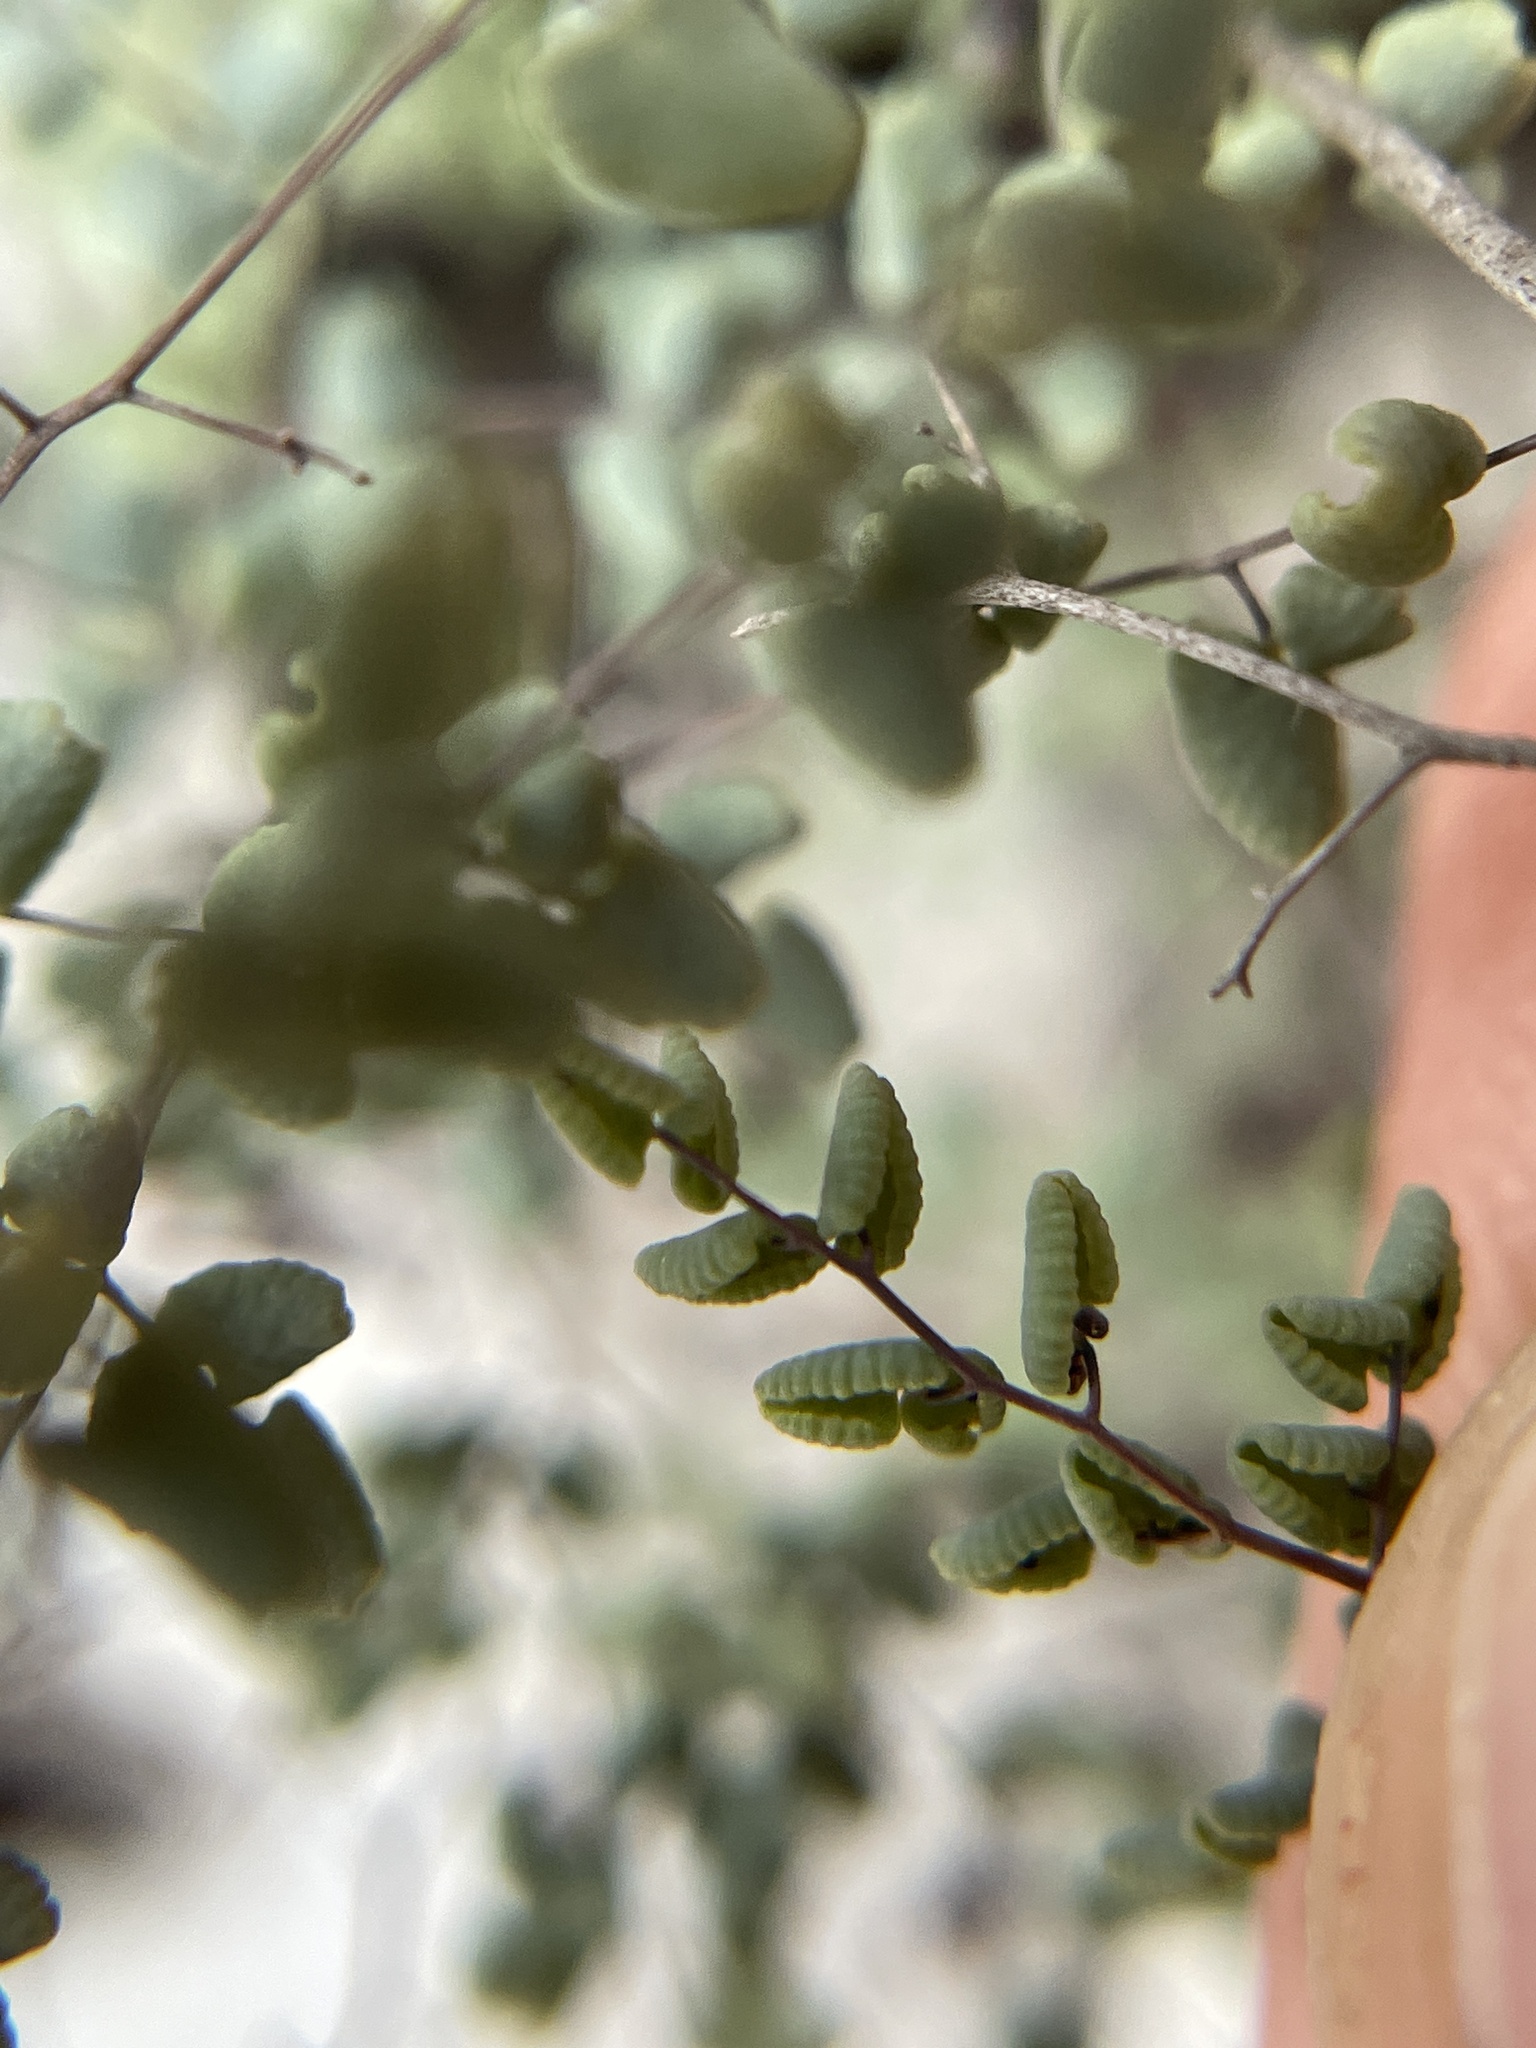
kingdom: Plantae
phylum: Tracheophyta
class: Polypodiopsida
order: Polypodiales
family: Pteridaceae
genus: Argyrochosma
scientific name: Argyrochosma microphylla
